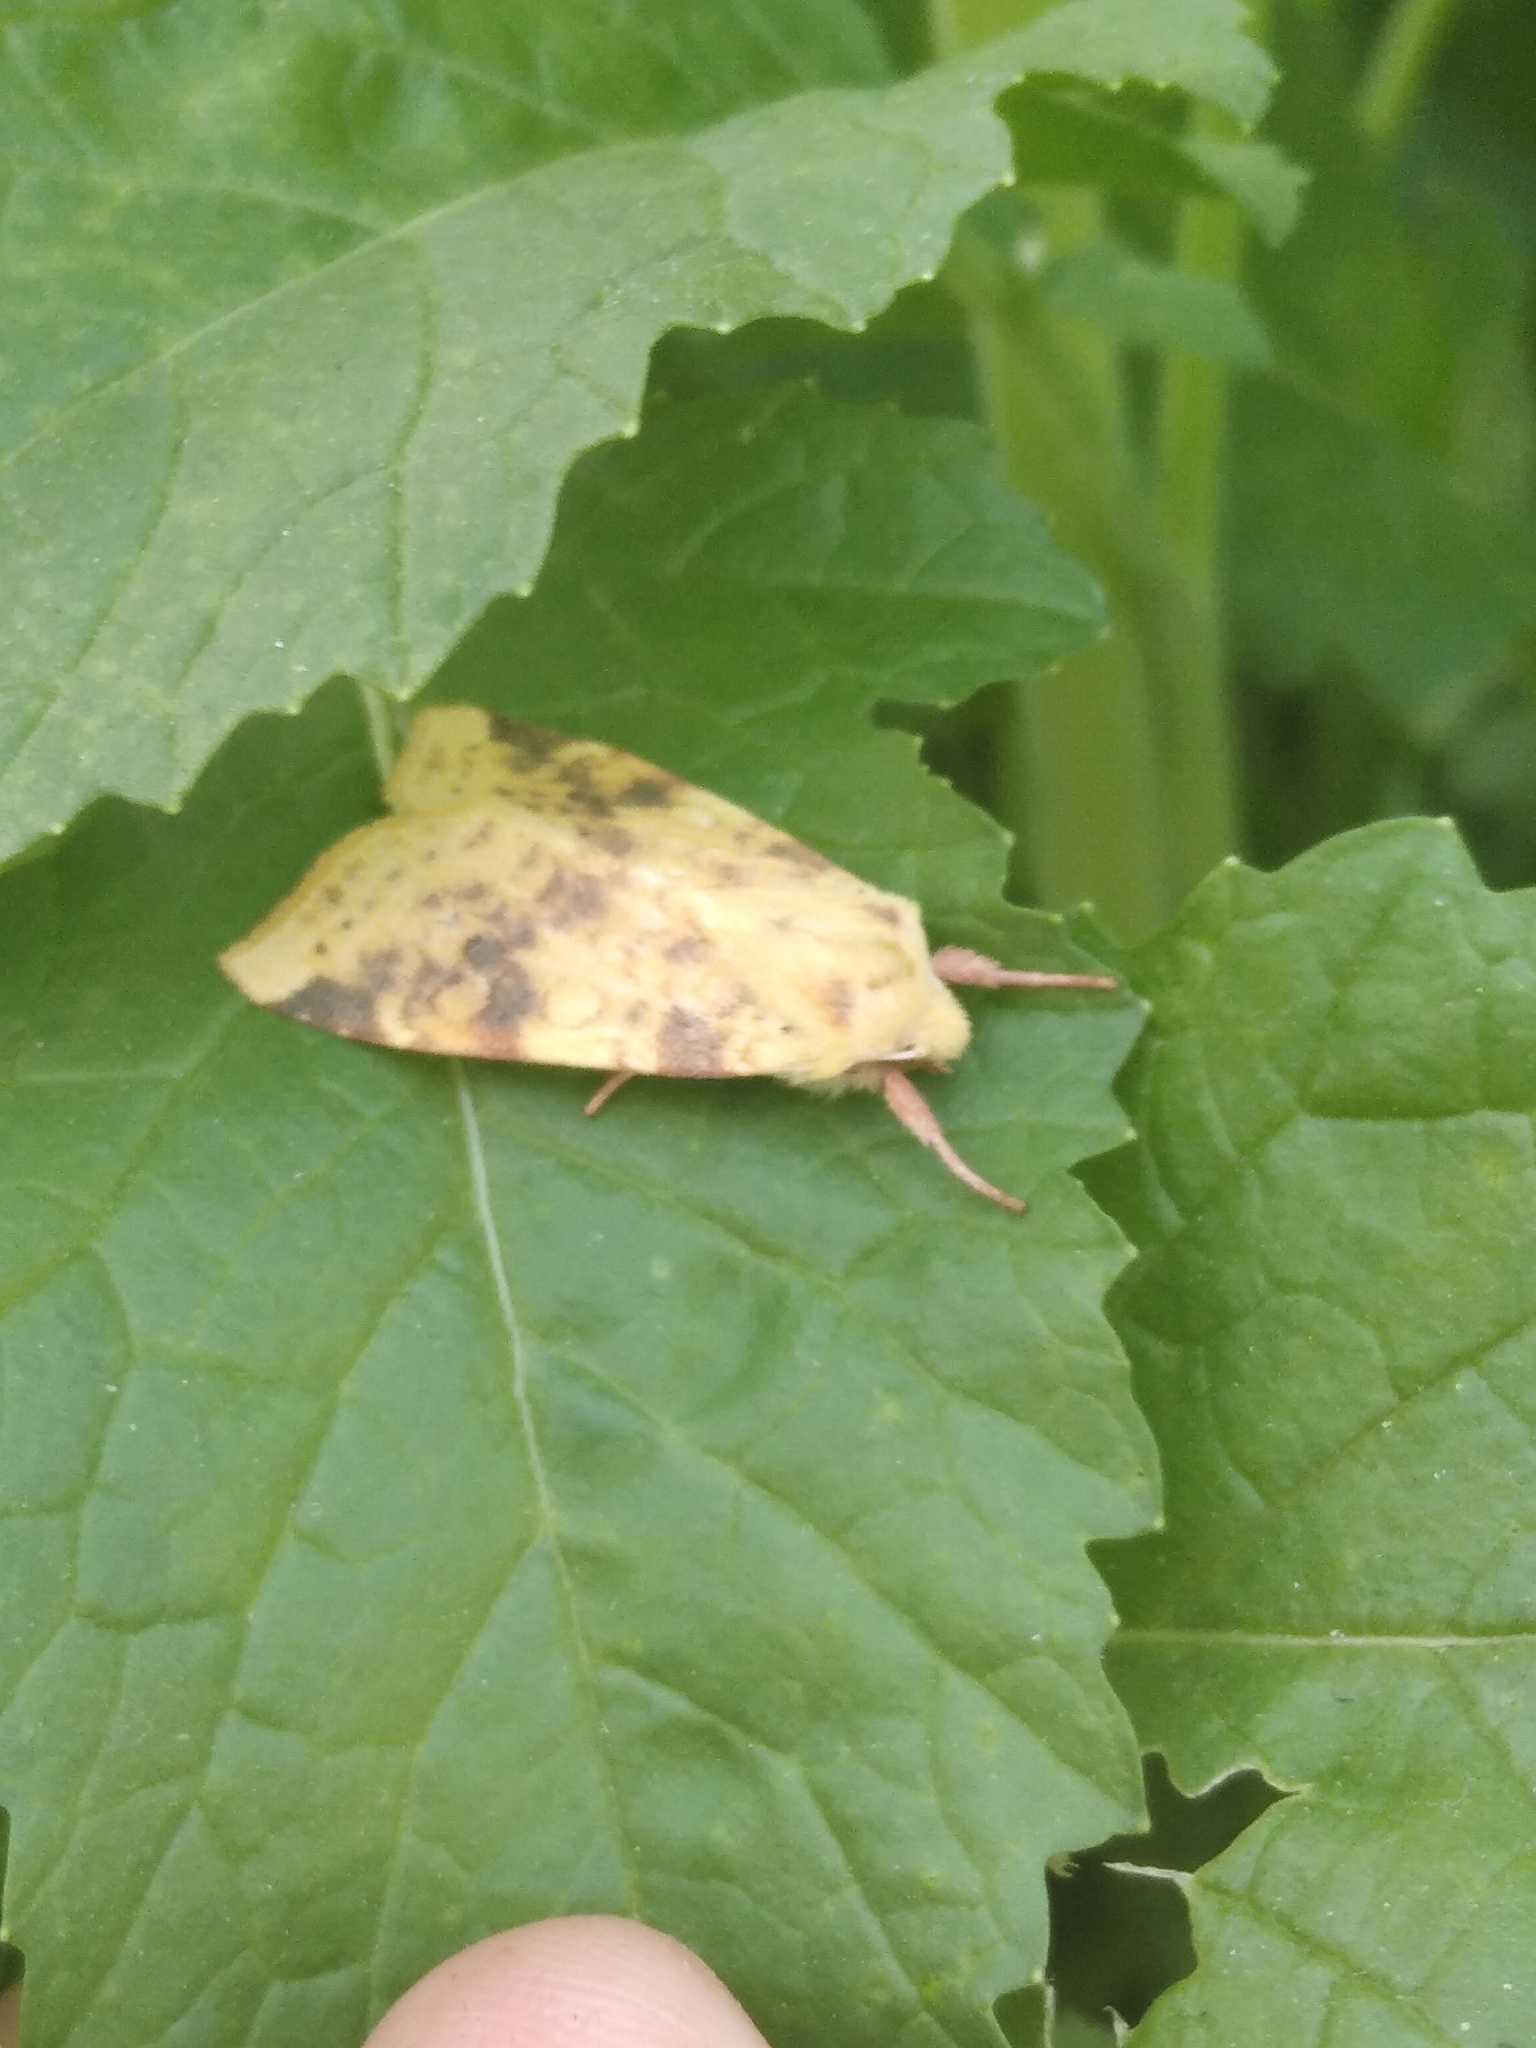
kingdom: Animalia
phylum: Arthropoda
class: Insecta
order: Lepidoptera
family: Noctuidae
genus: Xanthia
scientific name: Xanthia icteritia
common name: The sallow
